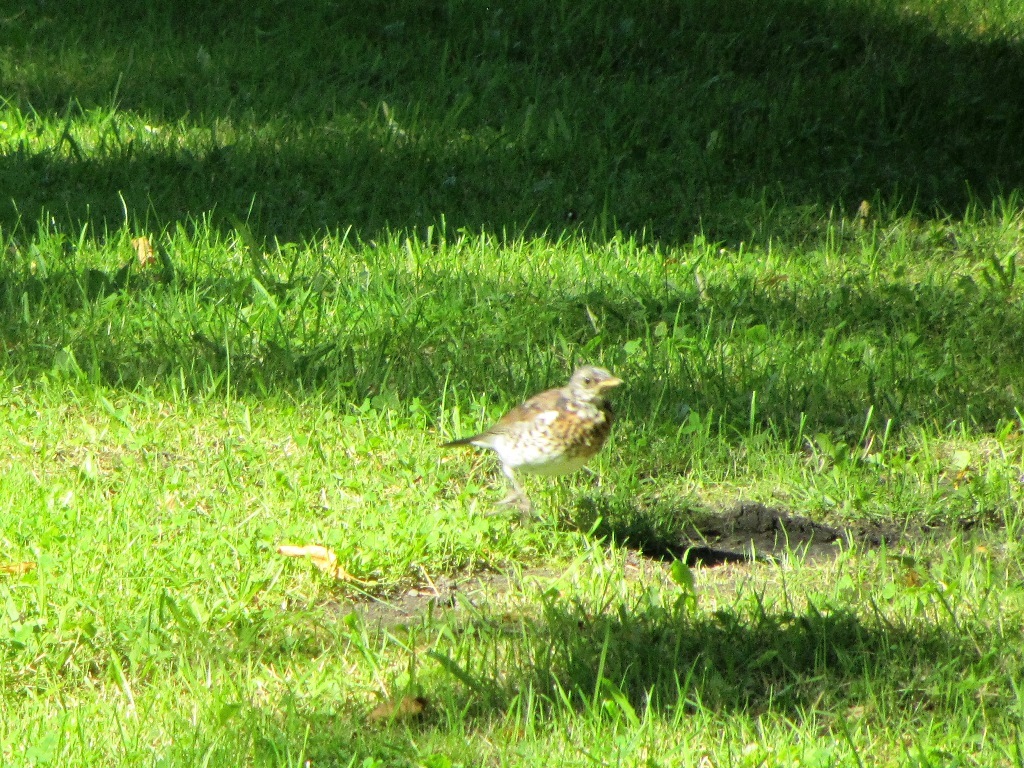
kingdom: Animalia
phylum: Chordata
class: Aves
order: Passeriformes
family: Turdidae
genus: Turdus
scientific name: Turdus pilaris
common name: Fieldfare
